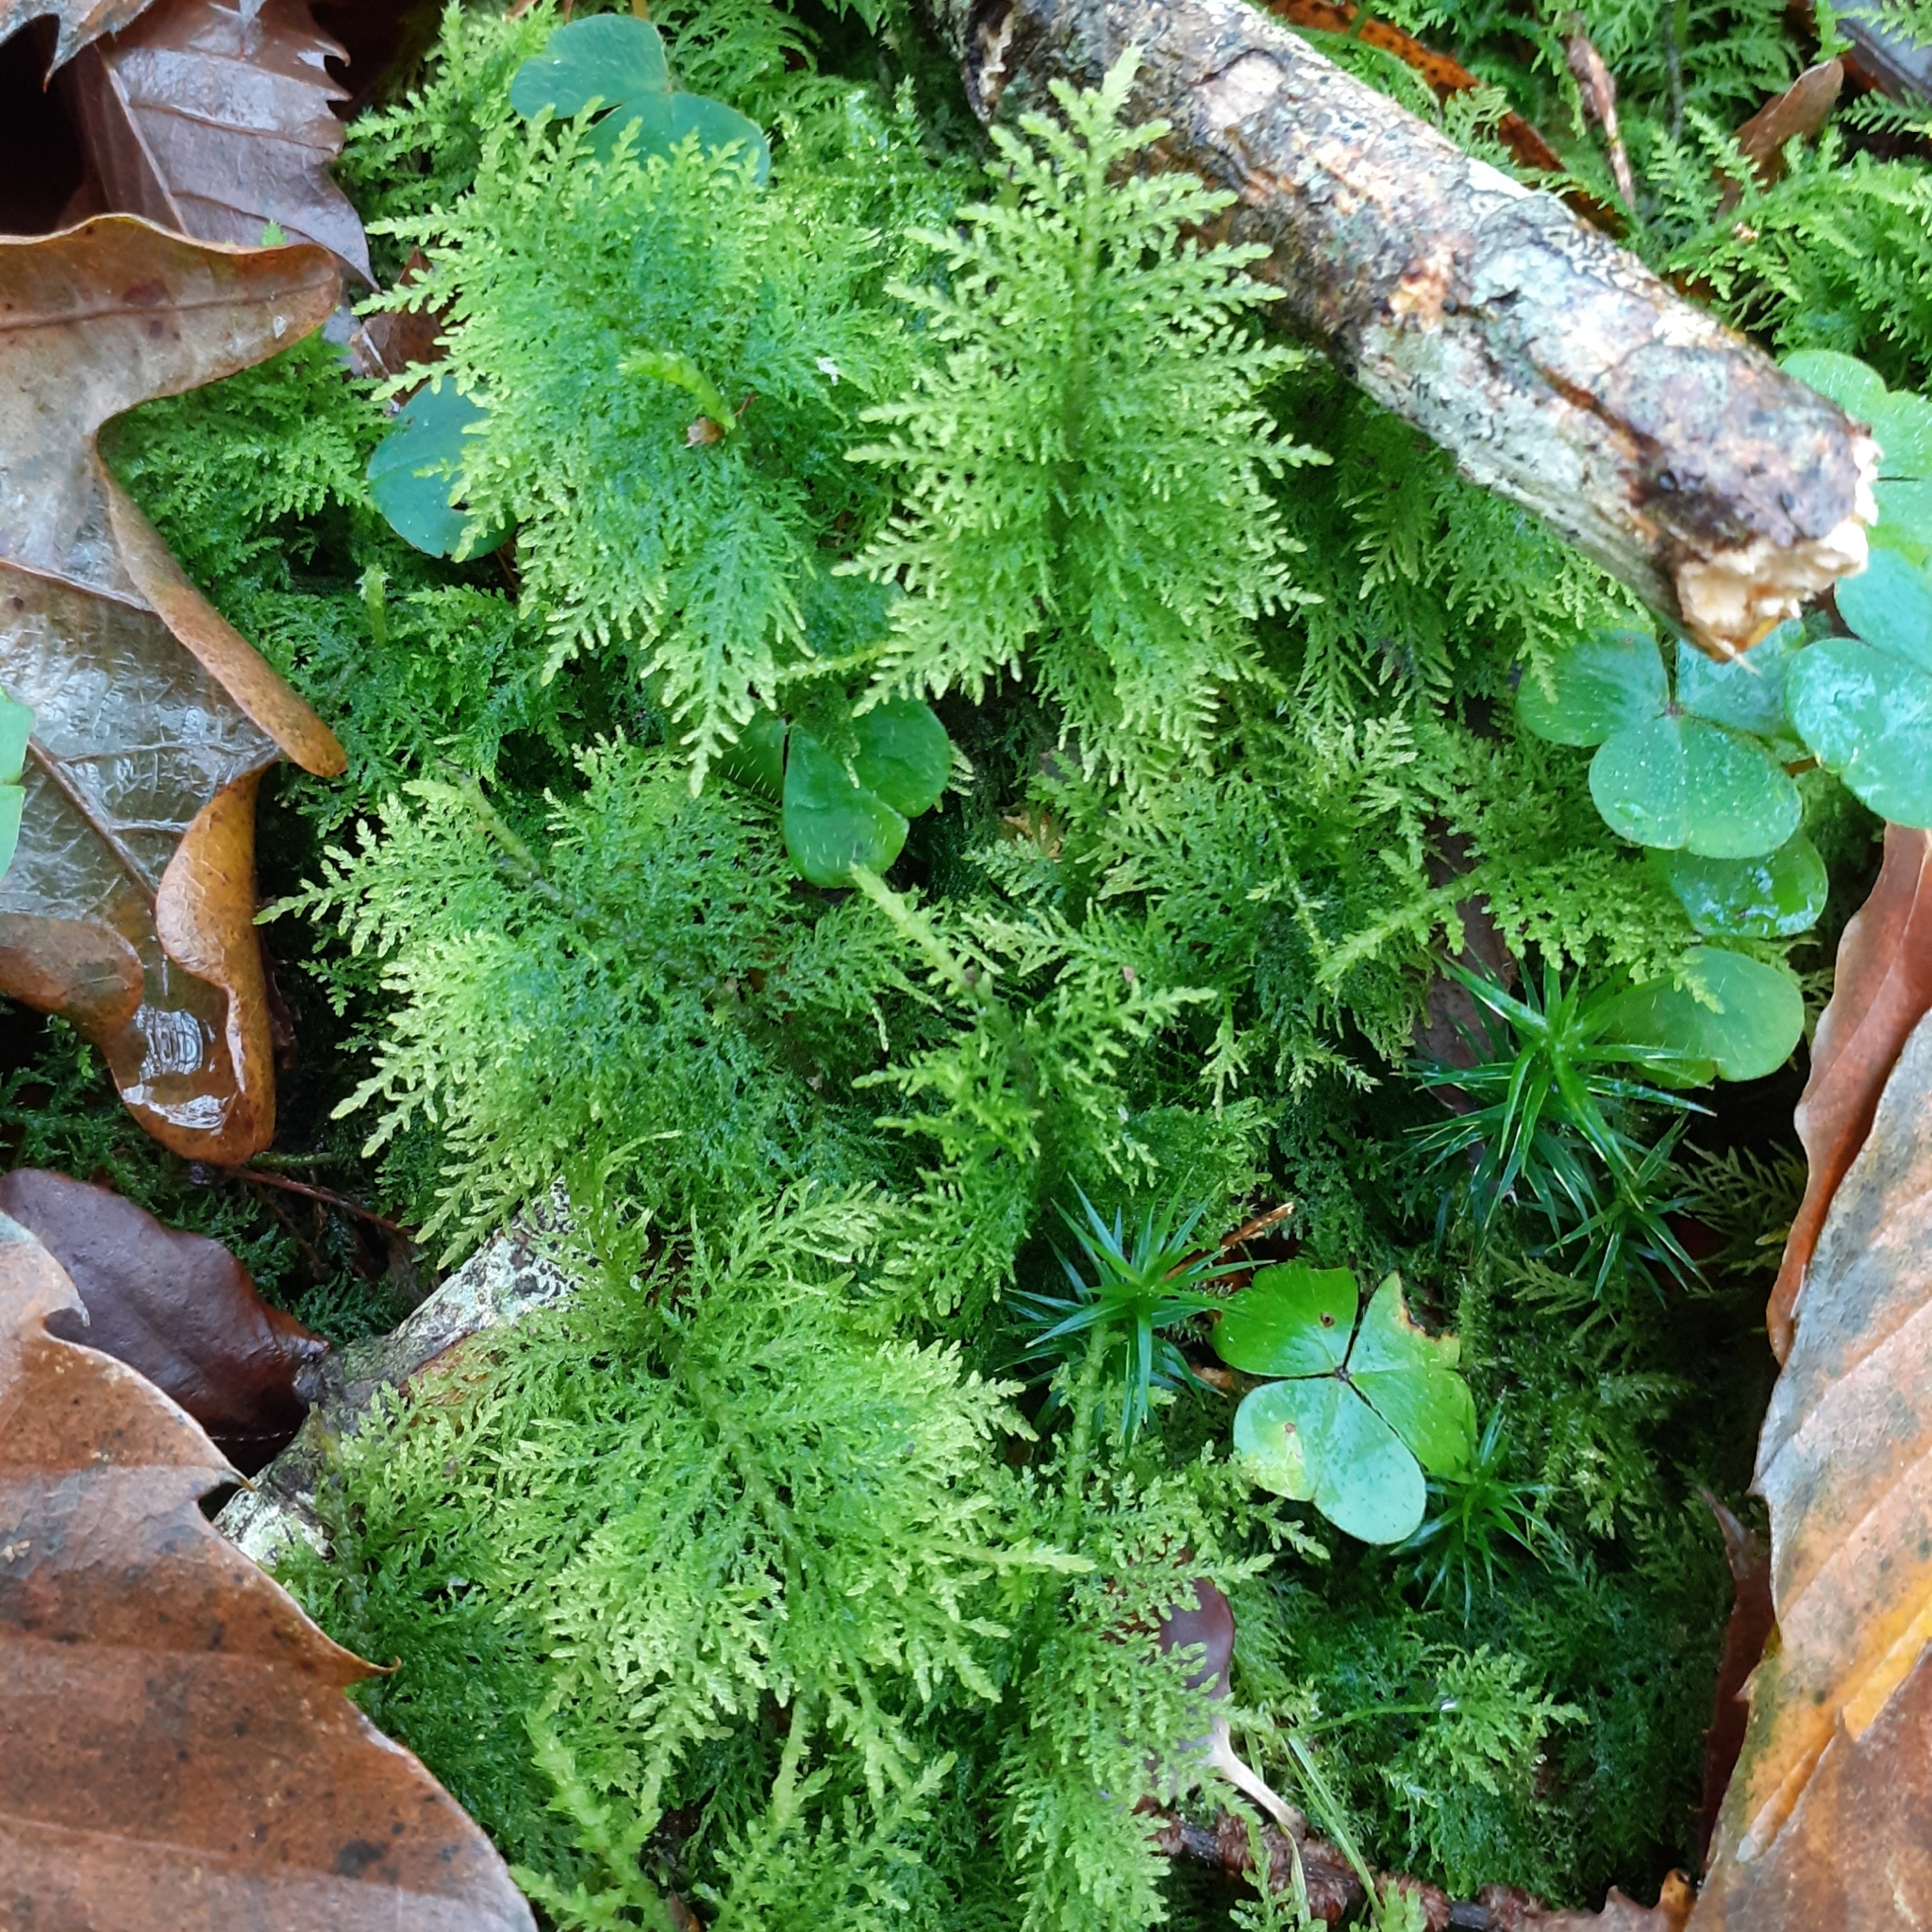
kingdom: Plantae
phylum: Bryophyta
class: Bryopsida
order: Hypnales
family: Thuidiaceae
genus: Thuidium
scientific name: Thuidium tamariscinum
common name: Common tamarisk-moss
